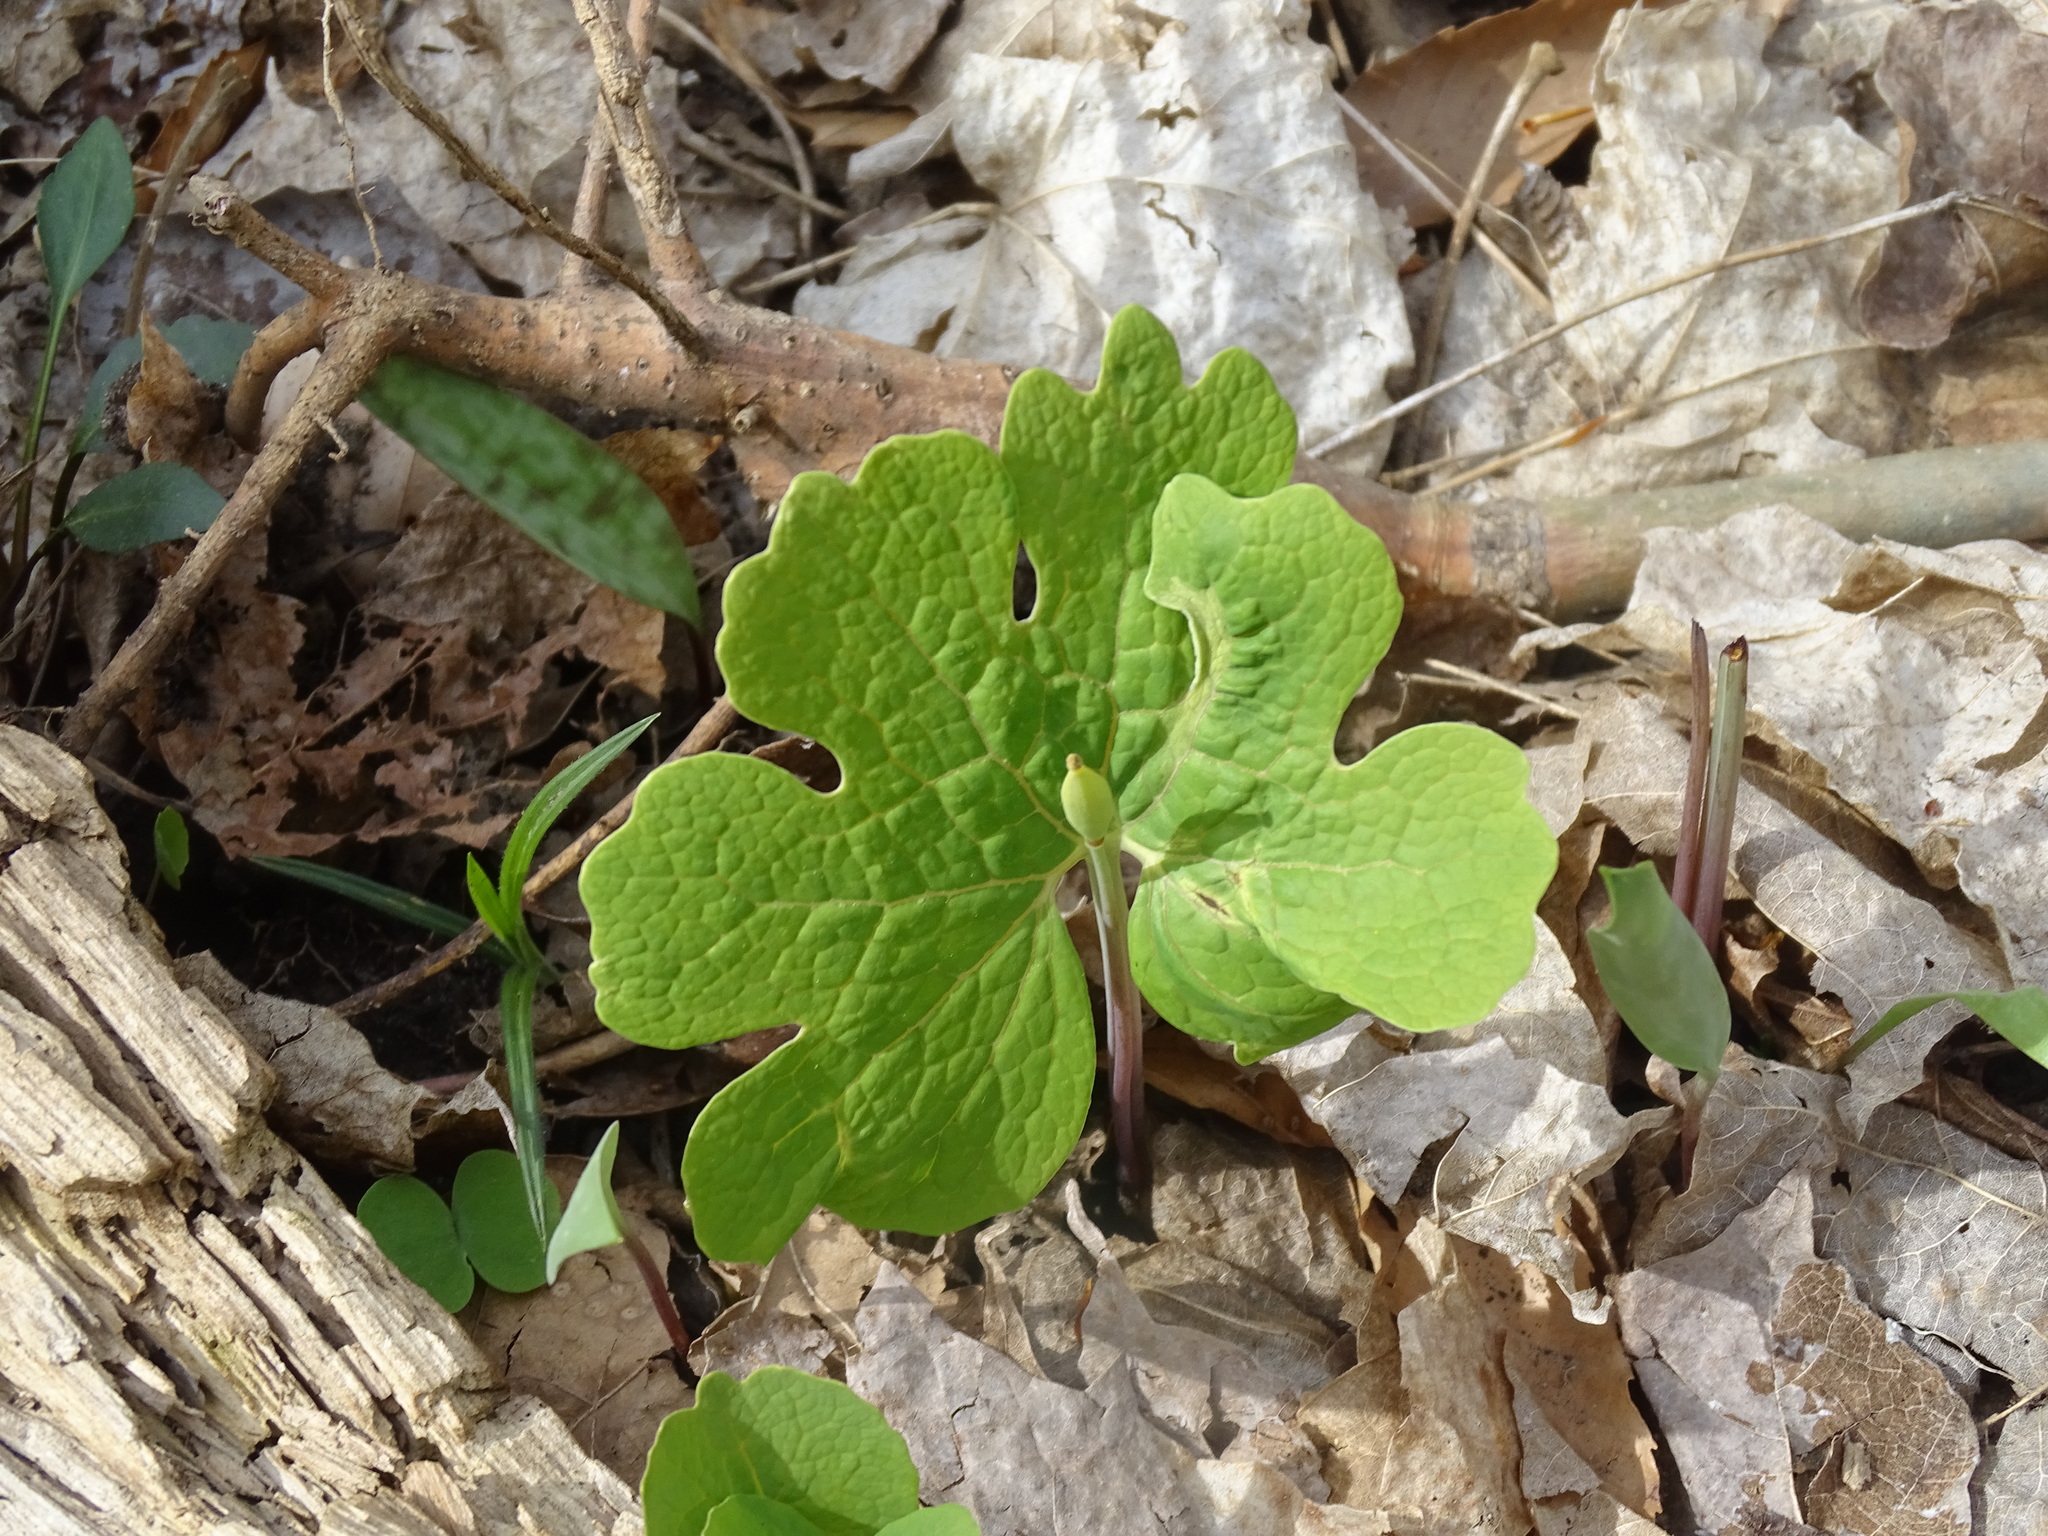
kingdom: Plantae
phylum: Tracheophyta
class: Magnoliopsida
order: Ranunculales
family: Papaveraceae
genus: Sanguinaria
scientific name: Sanguinaria canadensis
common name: Bloodroot
